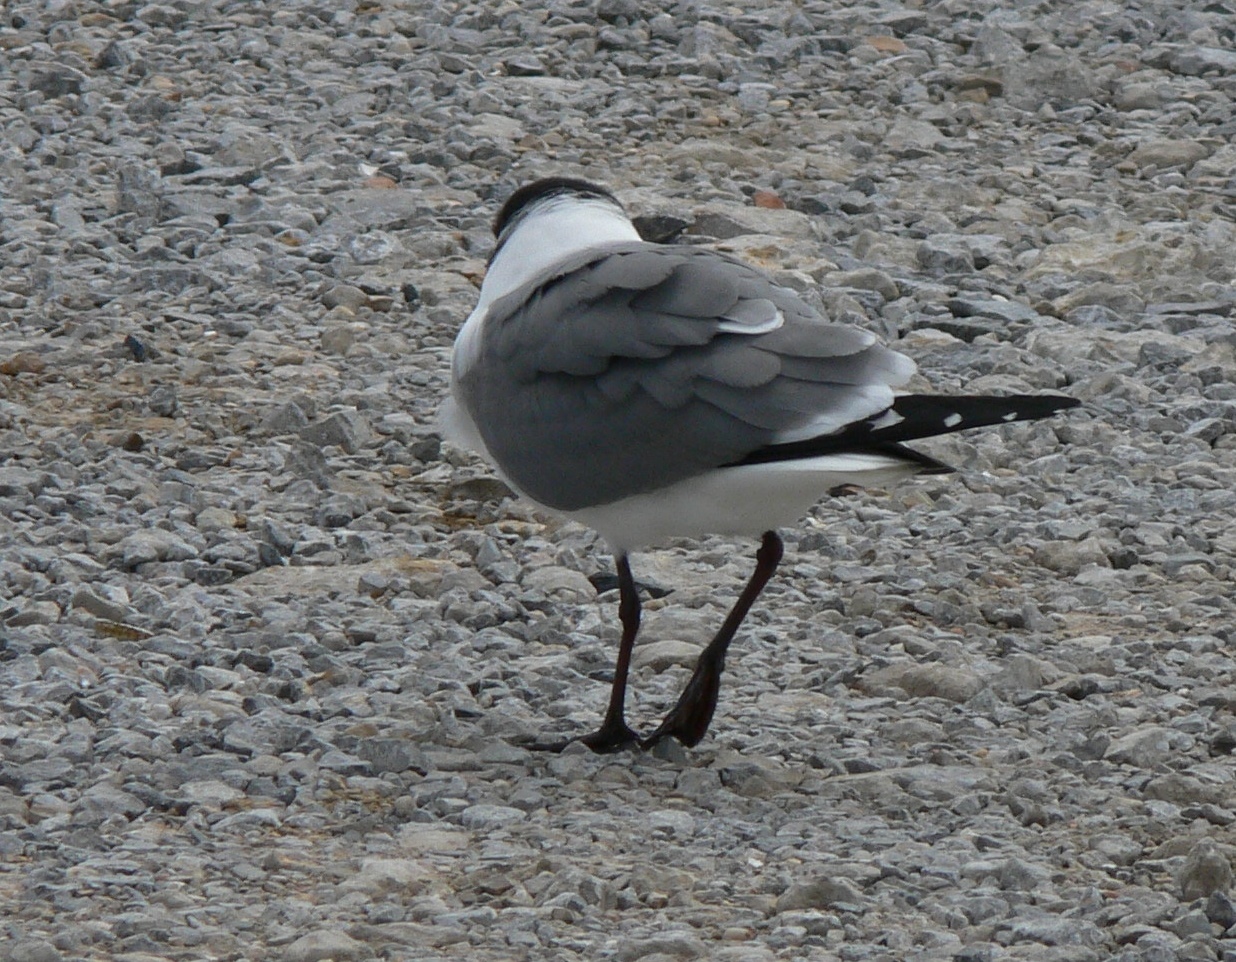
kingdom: Animalia
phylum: Chordata
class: Aves
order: Charadriiformes
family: Laridae
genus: Leucophaeus
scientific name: Leucophaeus atricilla
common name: Laughing gull
